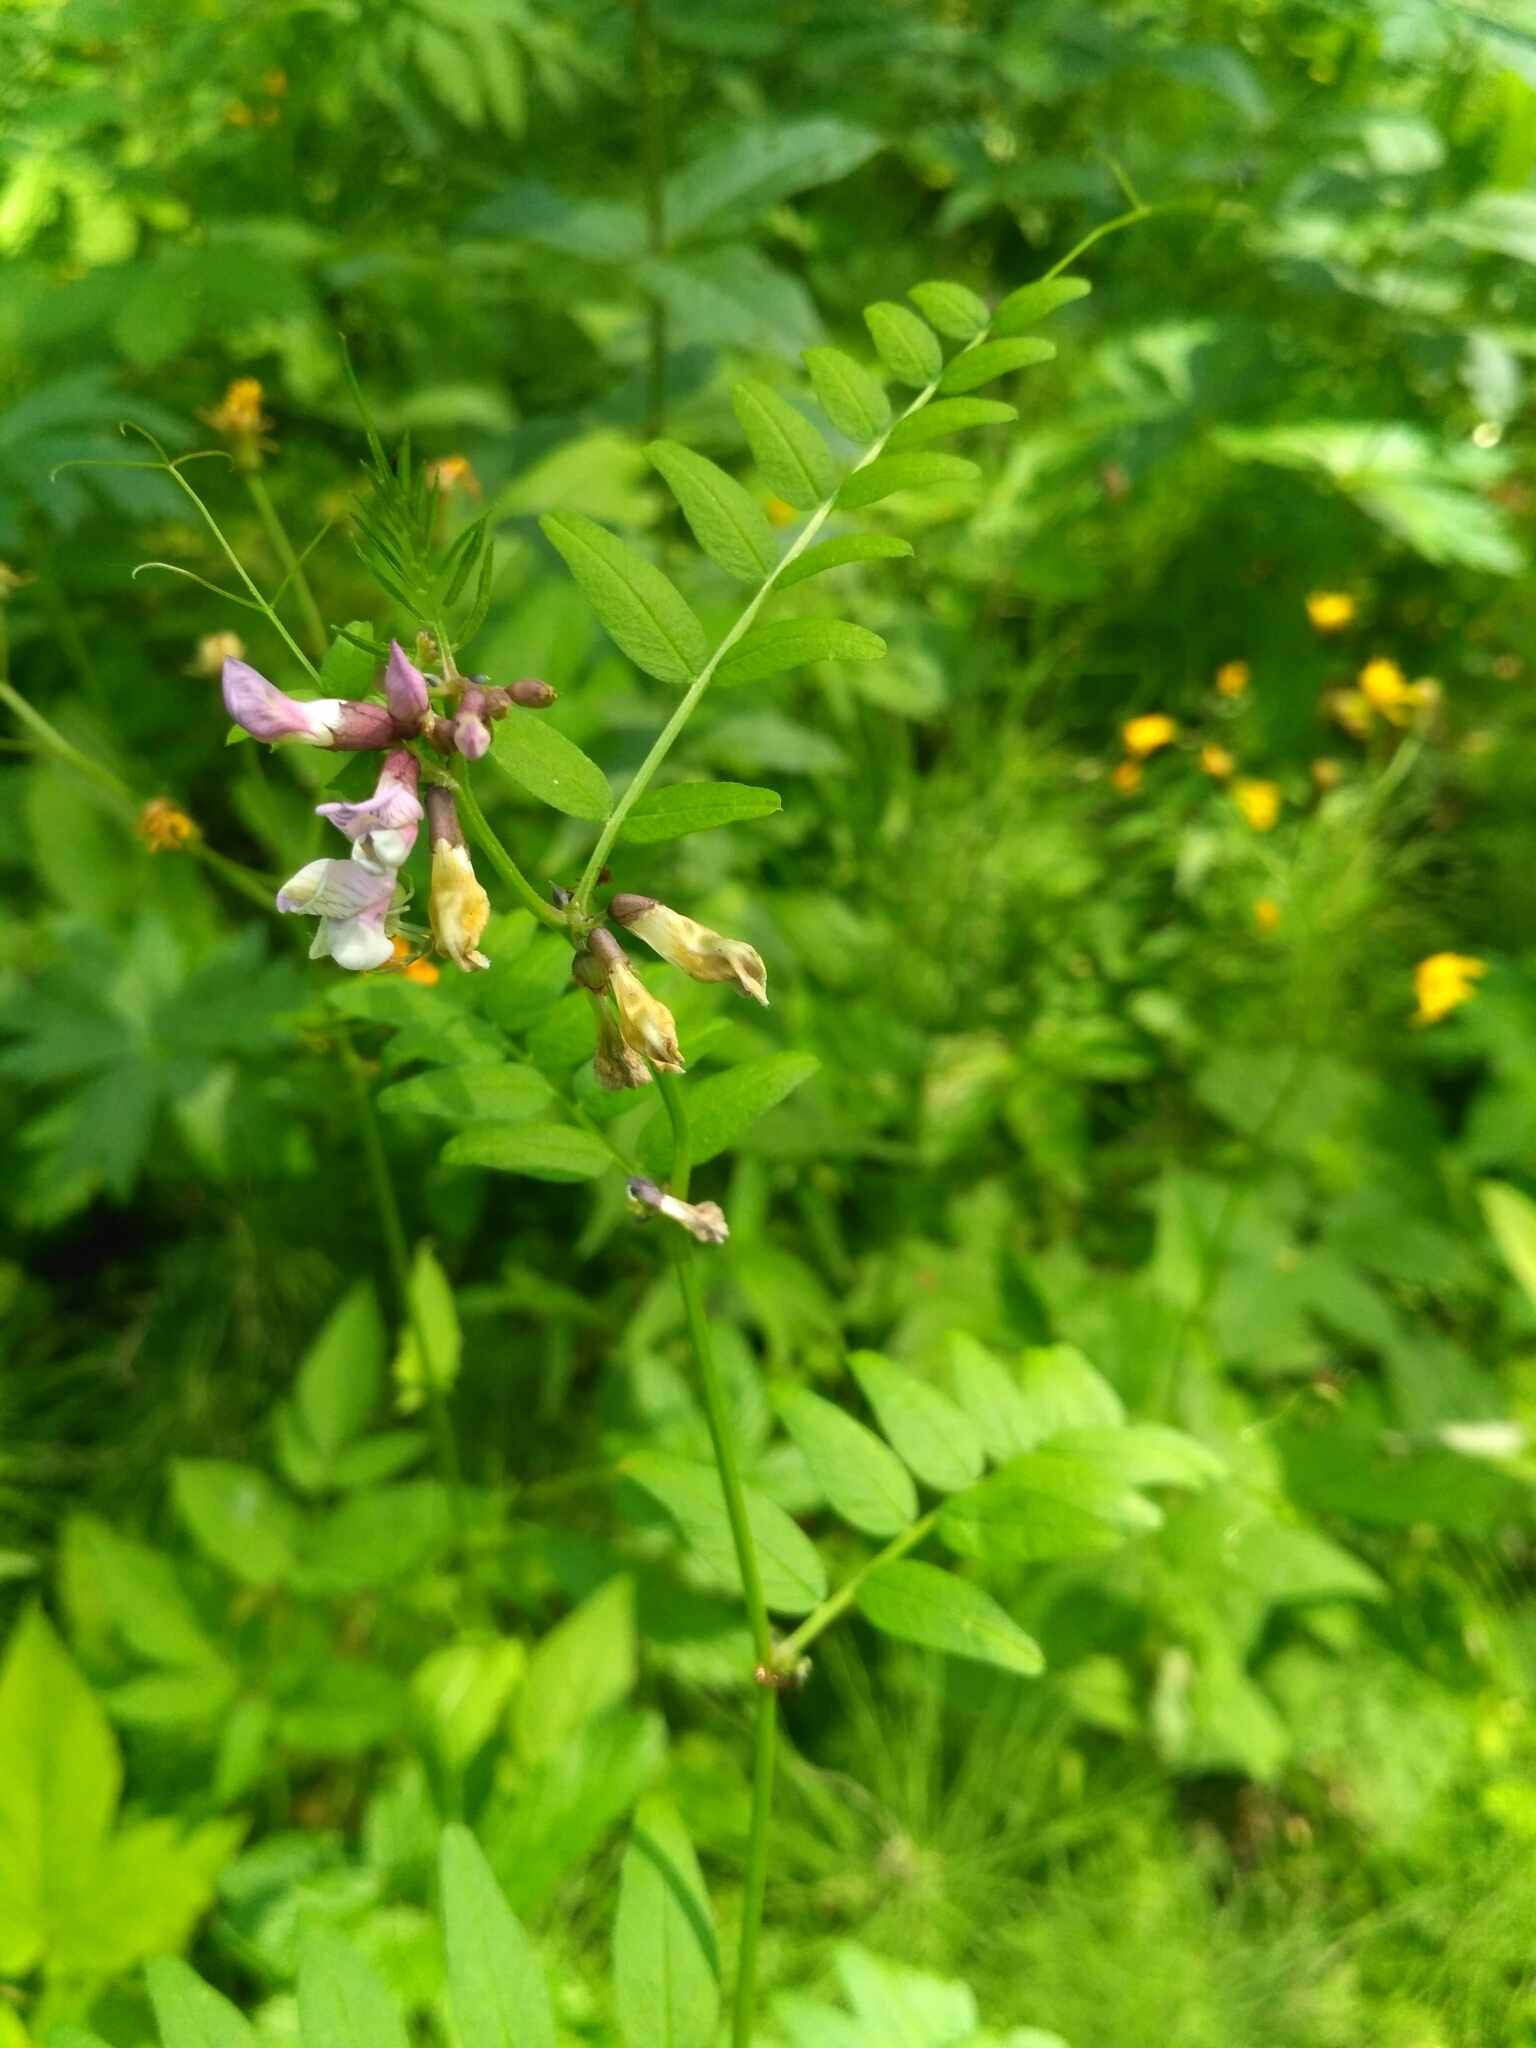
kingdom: Plantae
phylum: Tracheophyta
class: Magnoliopsida
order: Fabales
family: Fabaceae
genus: Vicia
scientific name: Vicia sepium
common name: Bush vetch
